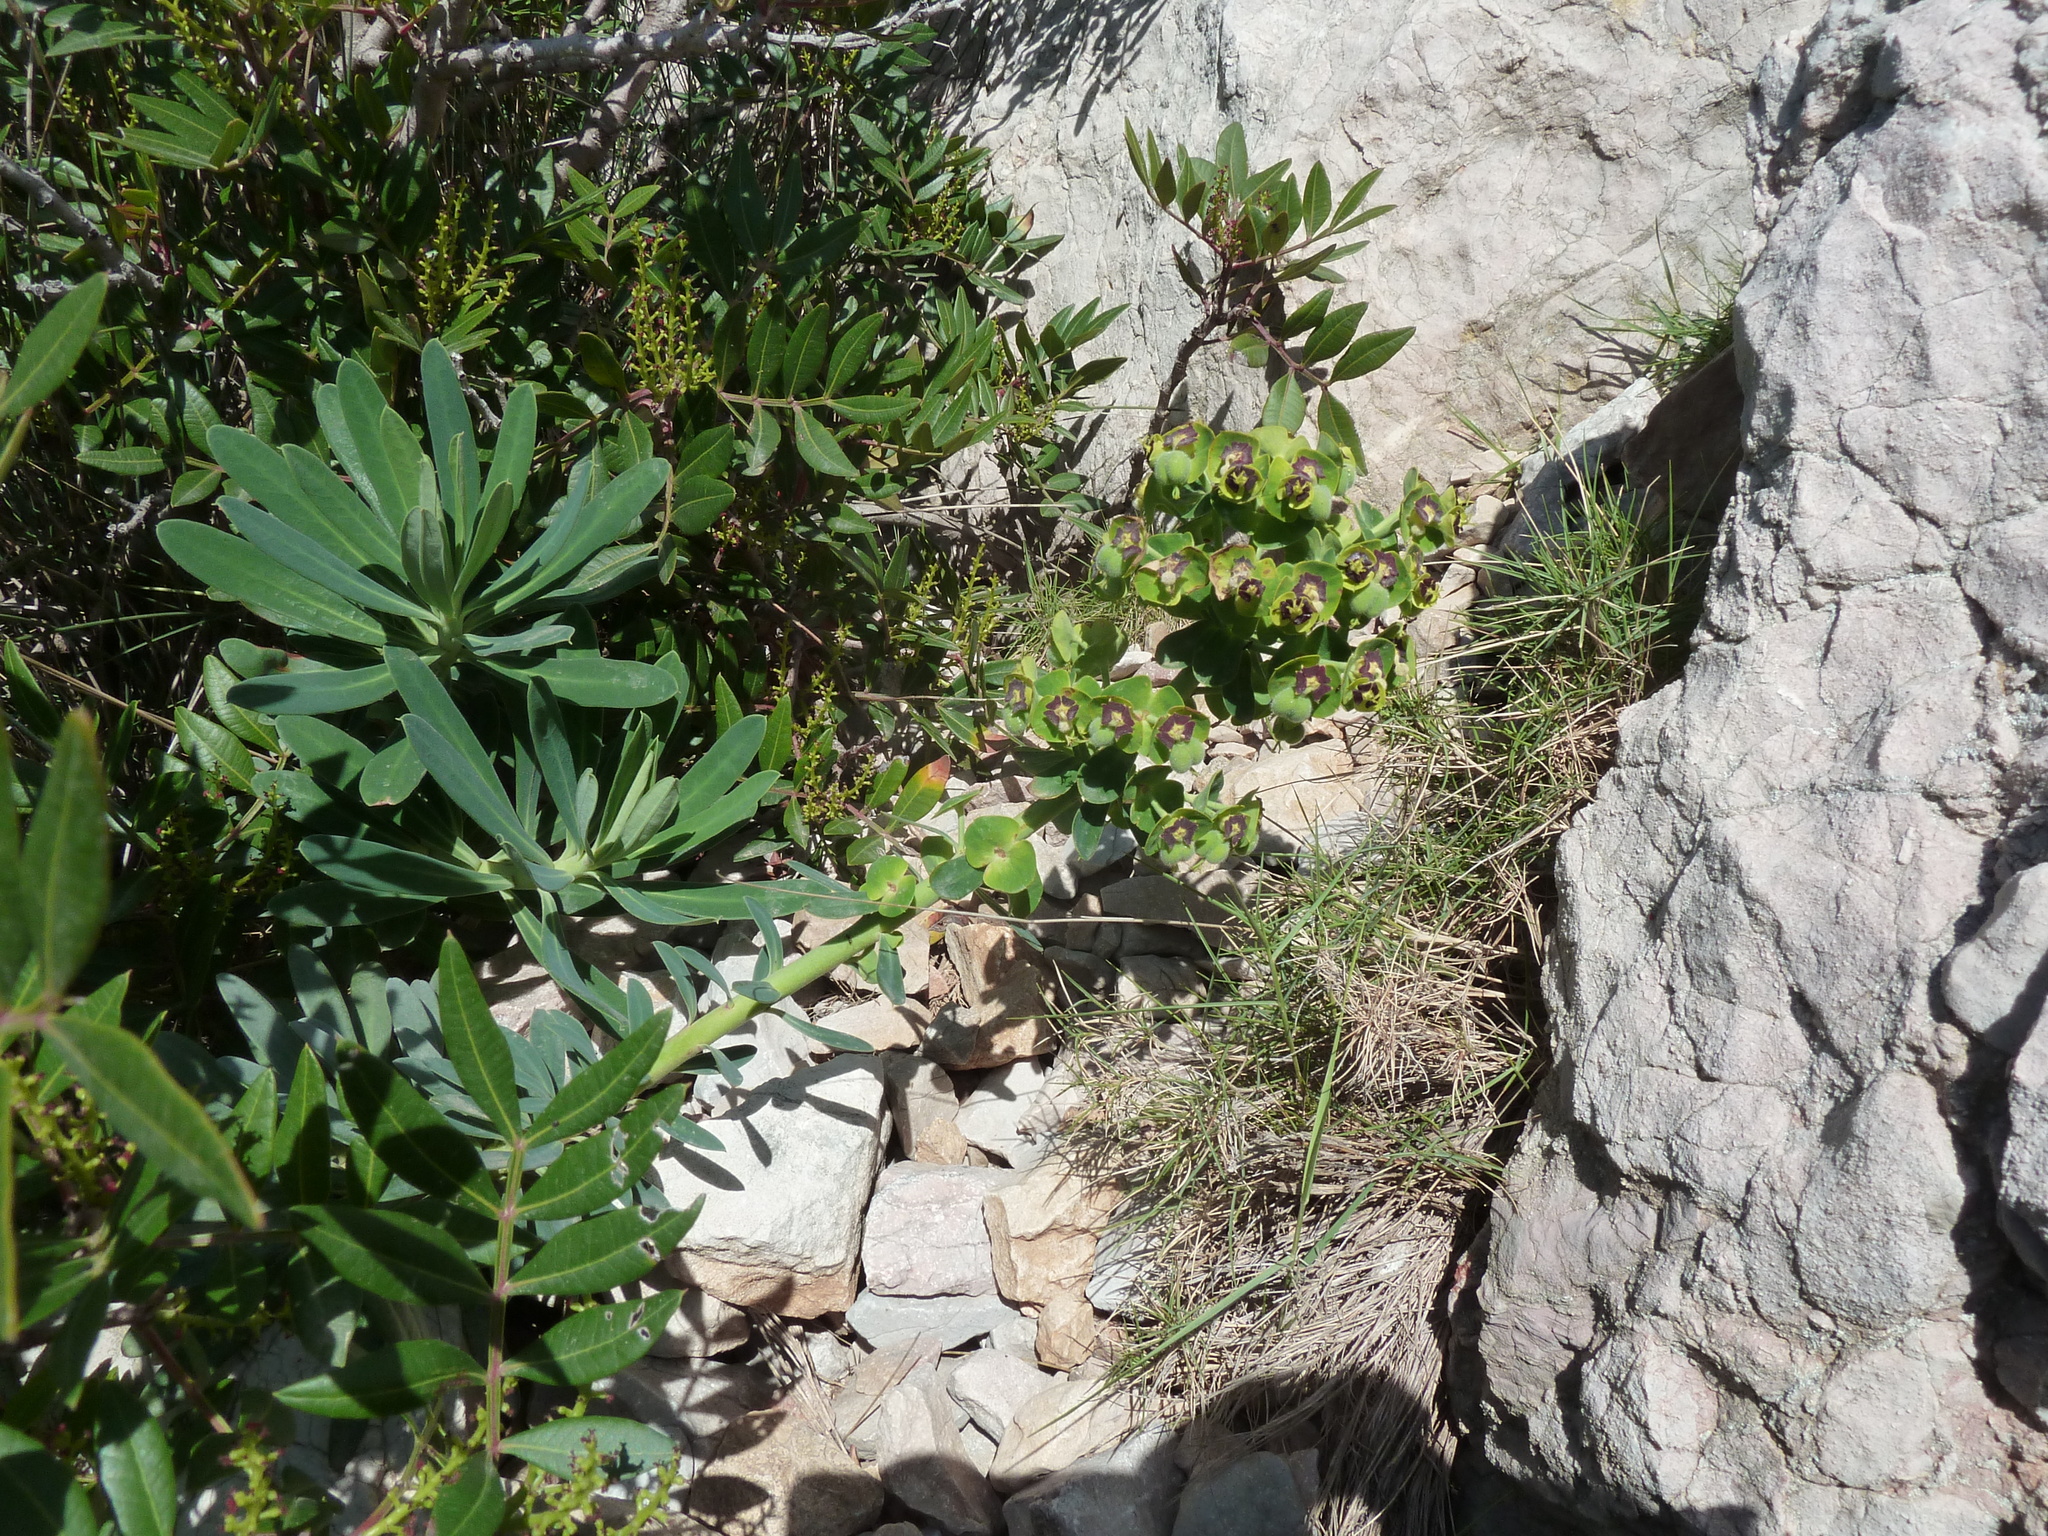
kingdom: Plantae
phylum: Tracheophyta
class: Magnoliopsida
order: Malpighiales
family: Euphorbiaceae
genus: Euphorbia
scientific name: Euphorbia characias
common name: Mediterranean spurge
